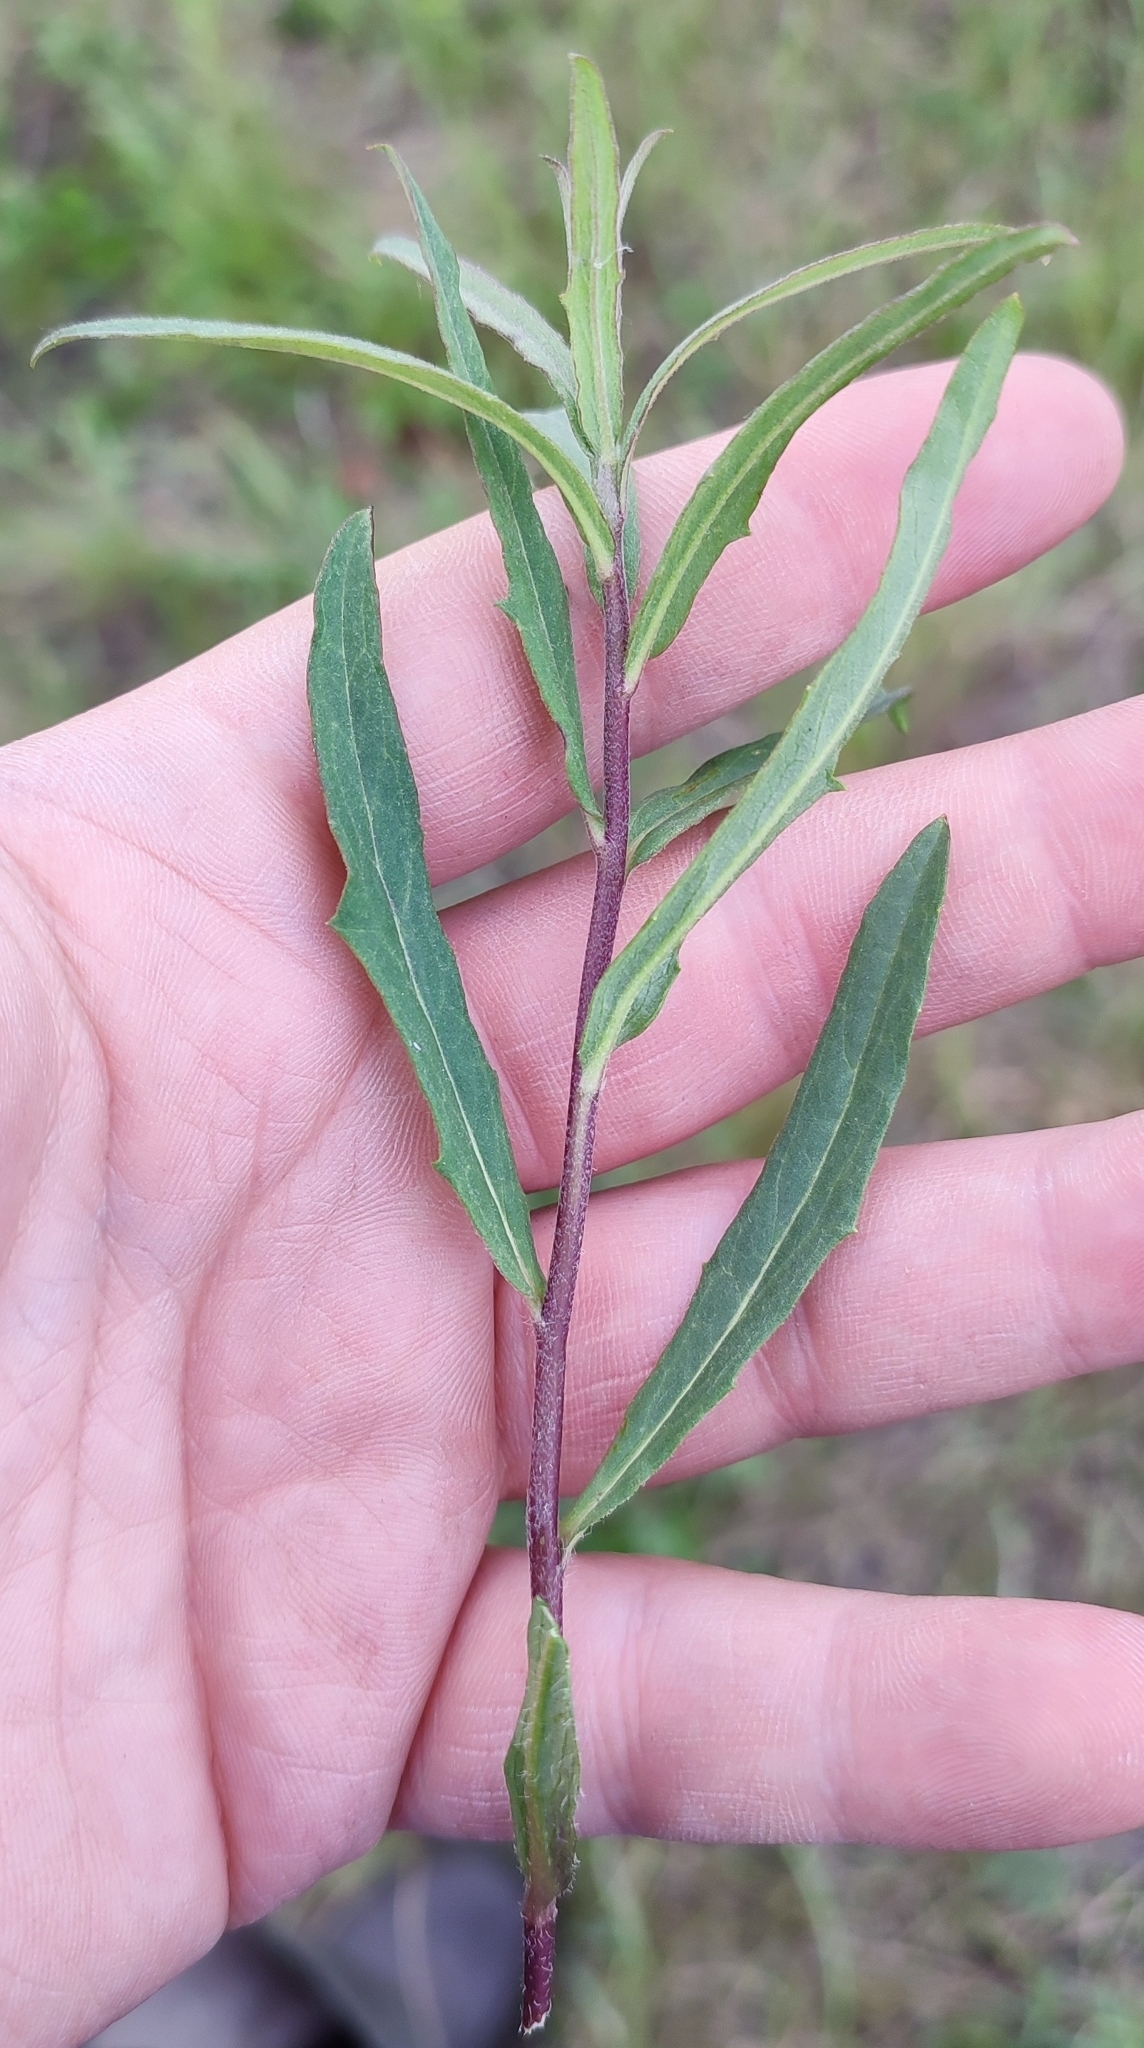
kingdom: Plantae
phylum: Tracheophyta
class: Magnoliopsida
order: Asterales
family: Asteraceae
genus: Hieracium
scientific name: Hieracium umbellatum
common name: Northern hawkweed
